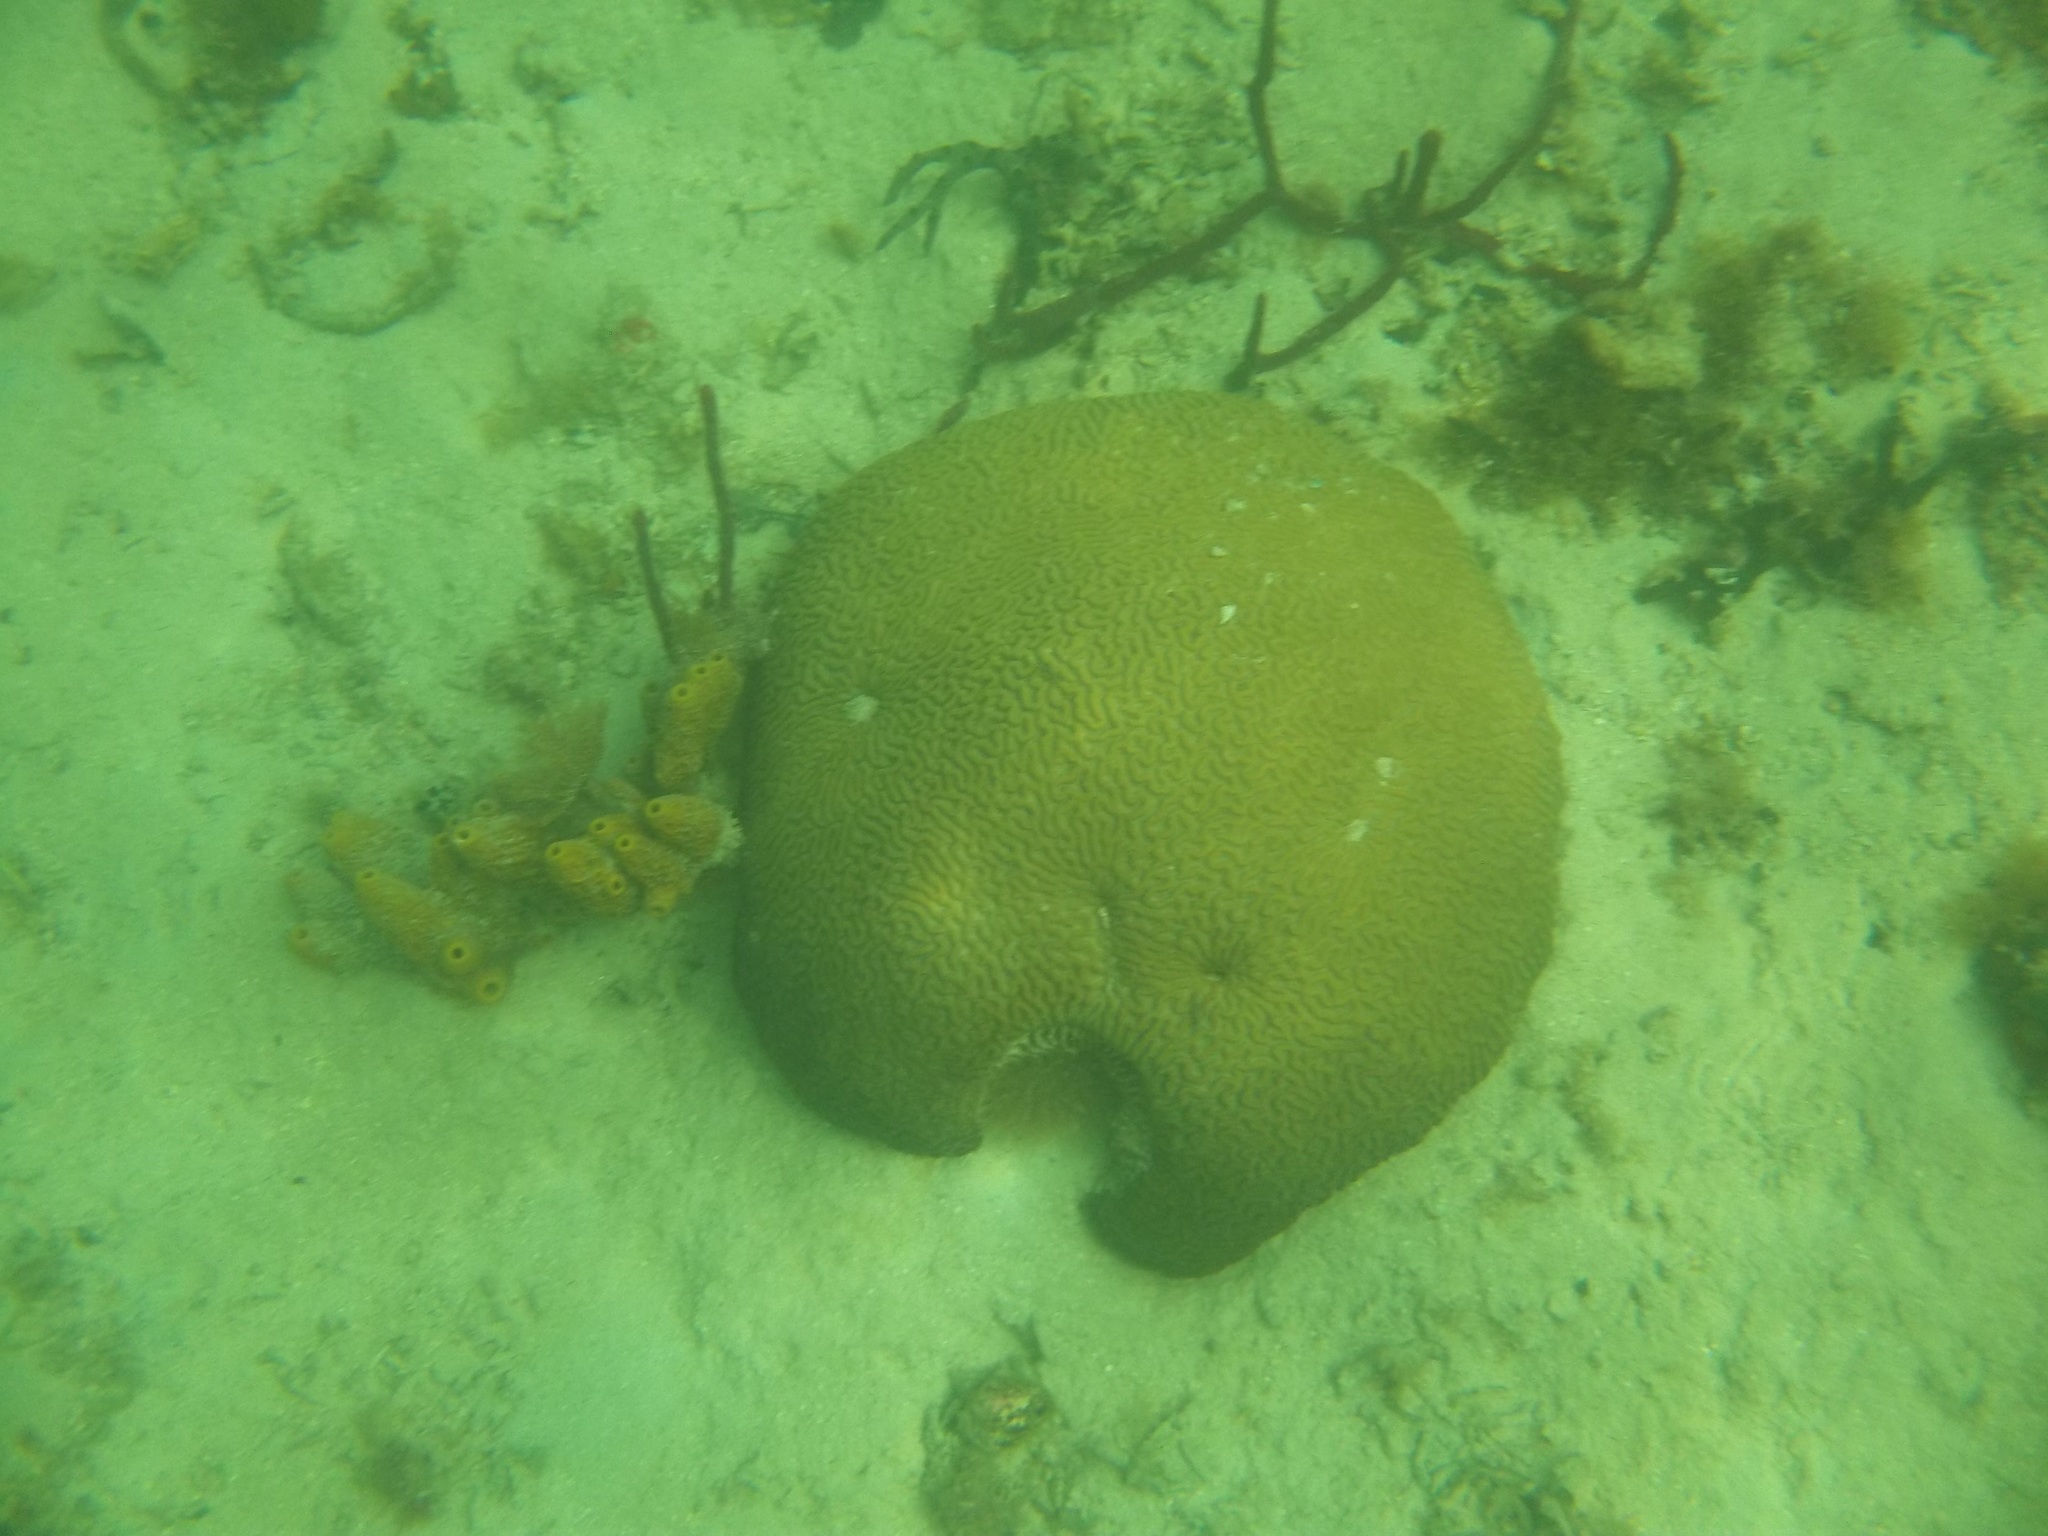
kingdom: Animalia
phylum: Cnidaria
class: Anthozoa
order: Scleractinia
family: Faviidae
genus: Pseudodiploria
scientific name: Pseudodiploria strigosa
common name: Symmetrical brain coral
